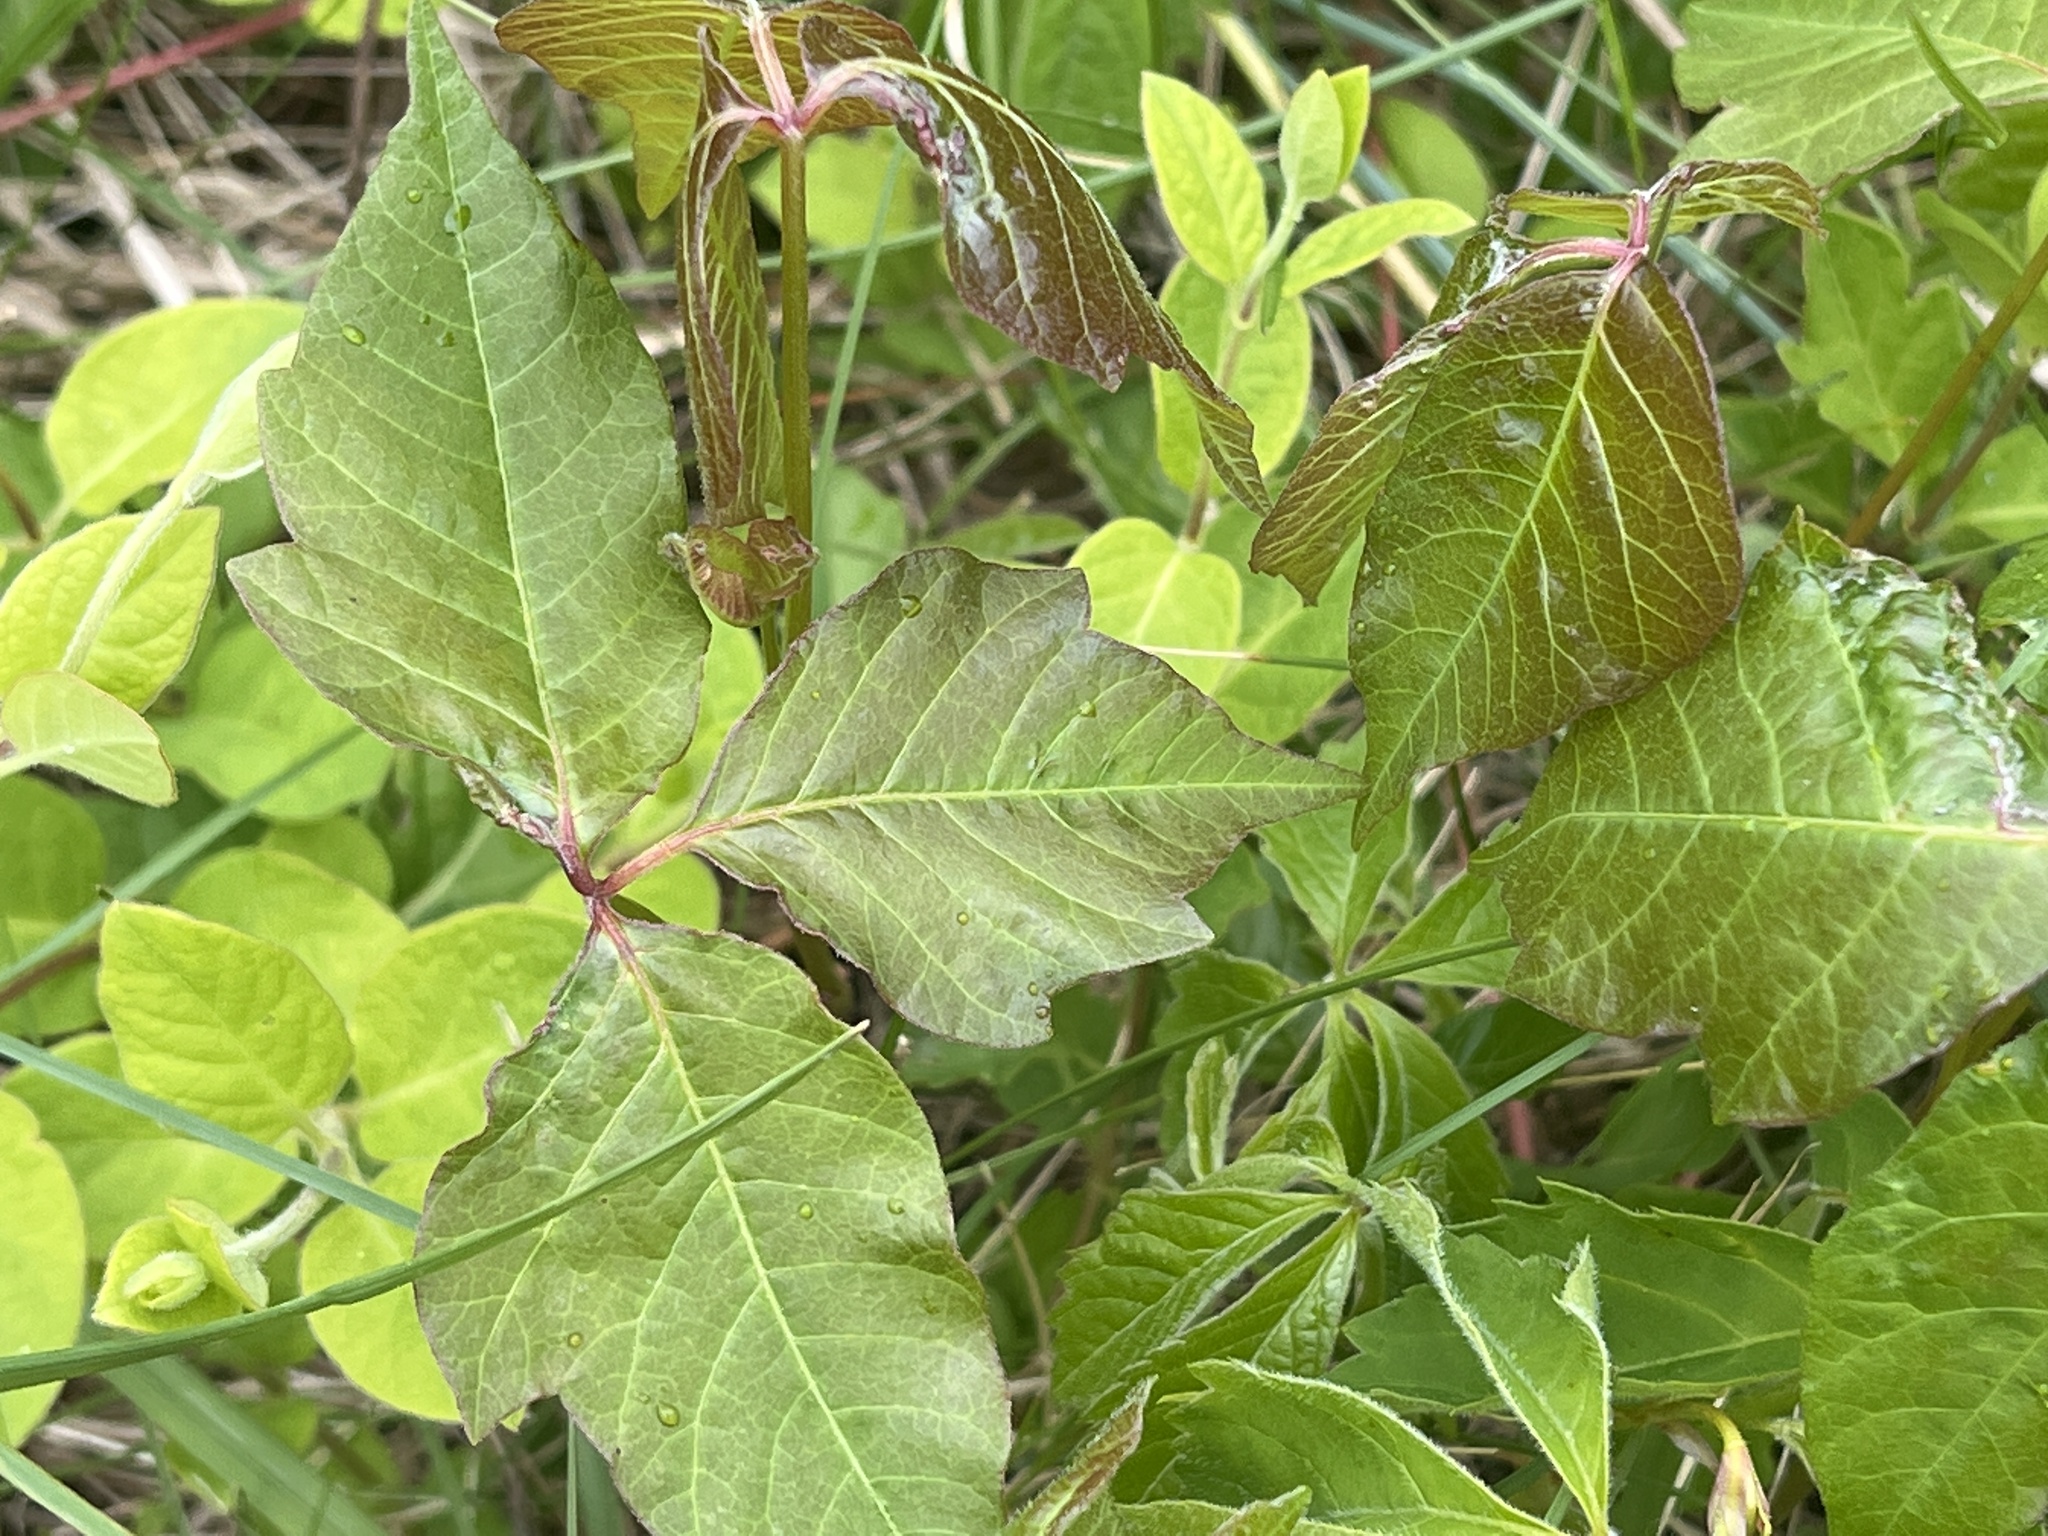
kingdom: Plantae
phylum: Tracheophyta
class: Magnoliopsida
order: Sapindales
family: Anacardiaceae
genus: Toxicodendron
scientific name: Toxicodendron radicans
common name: Poison ivy
